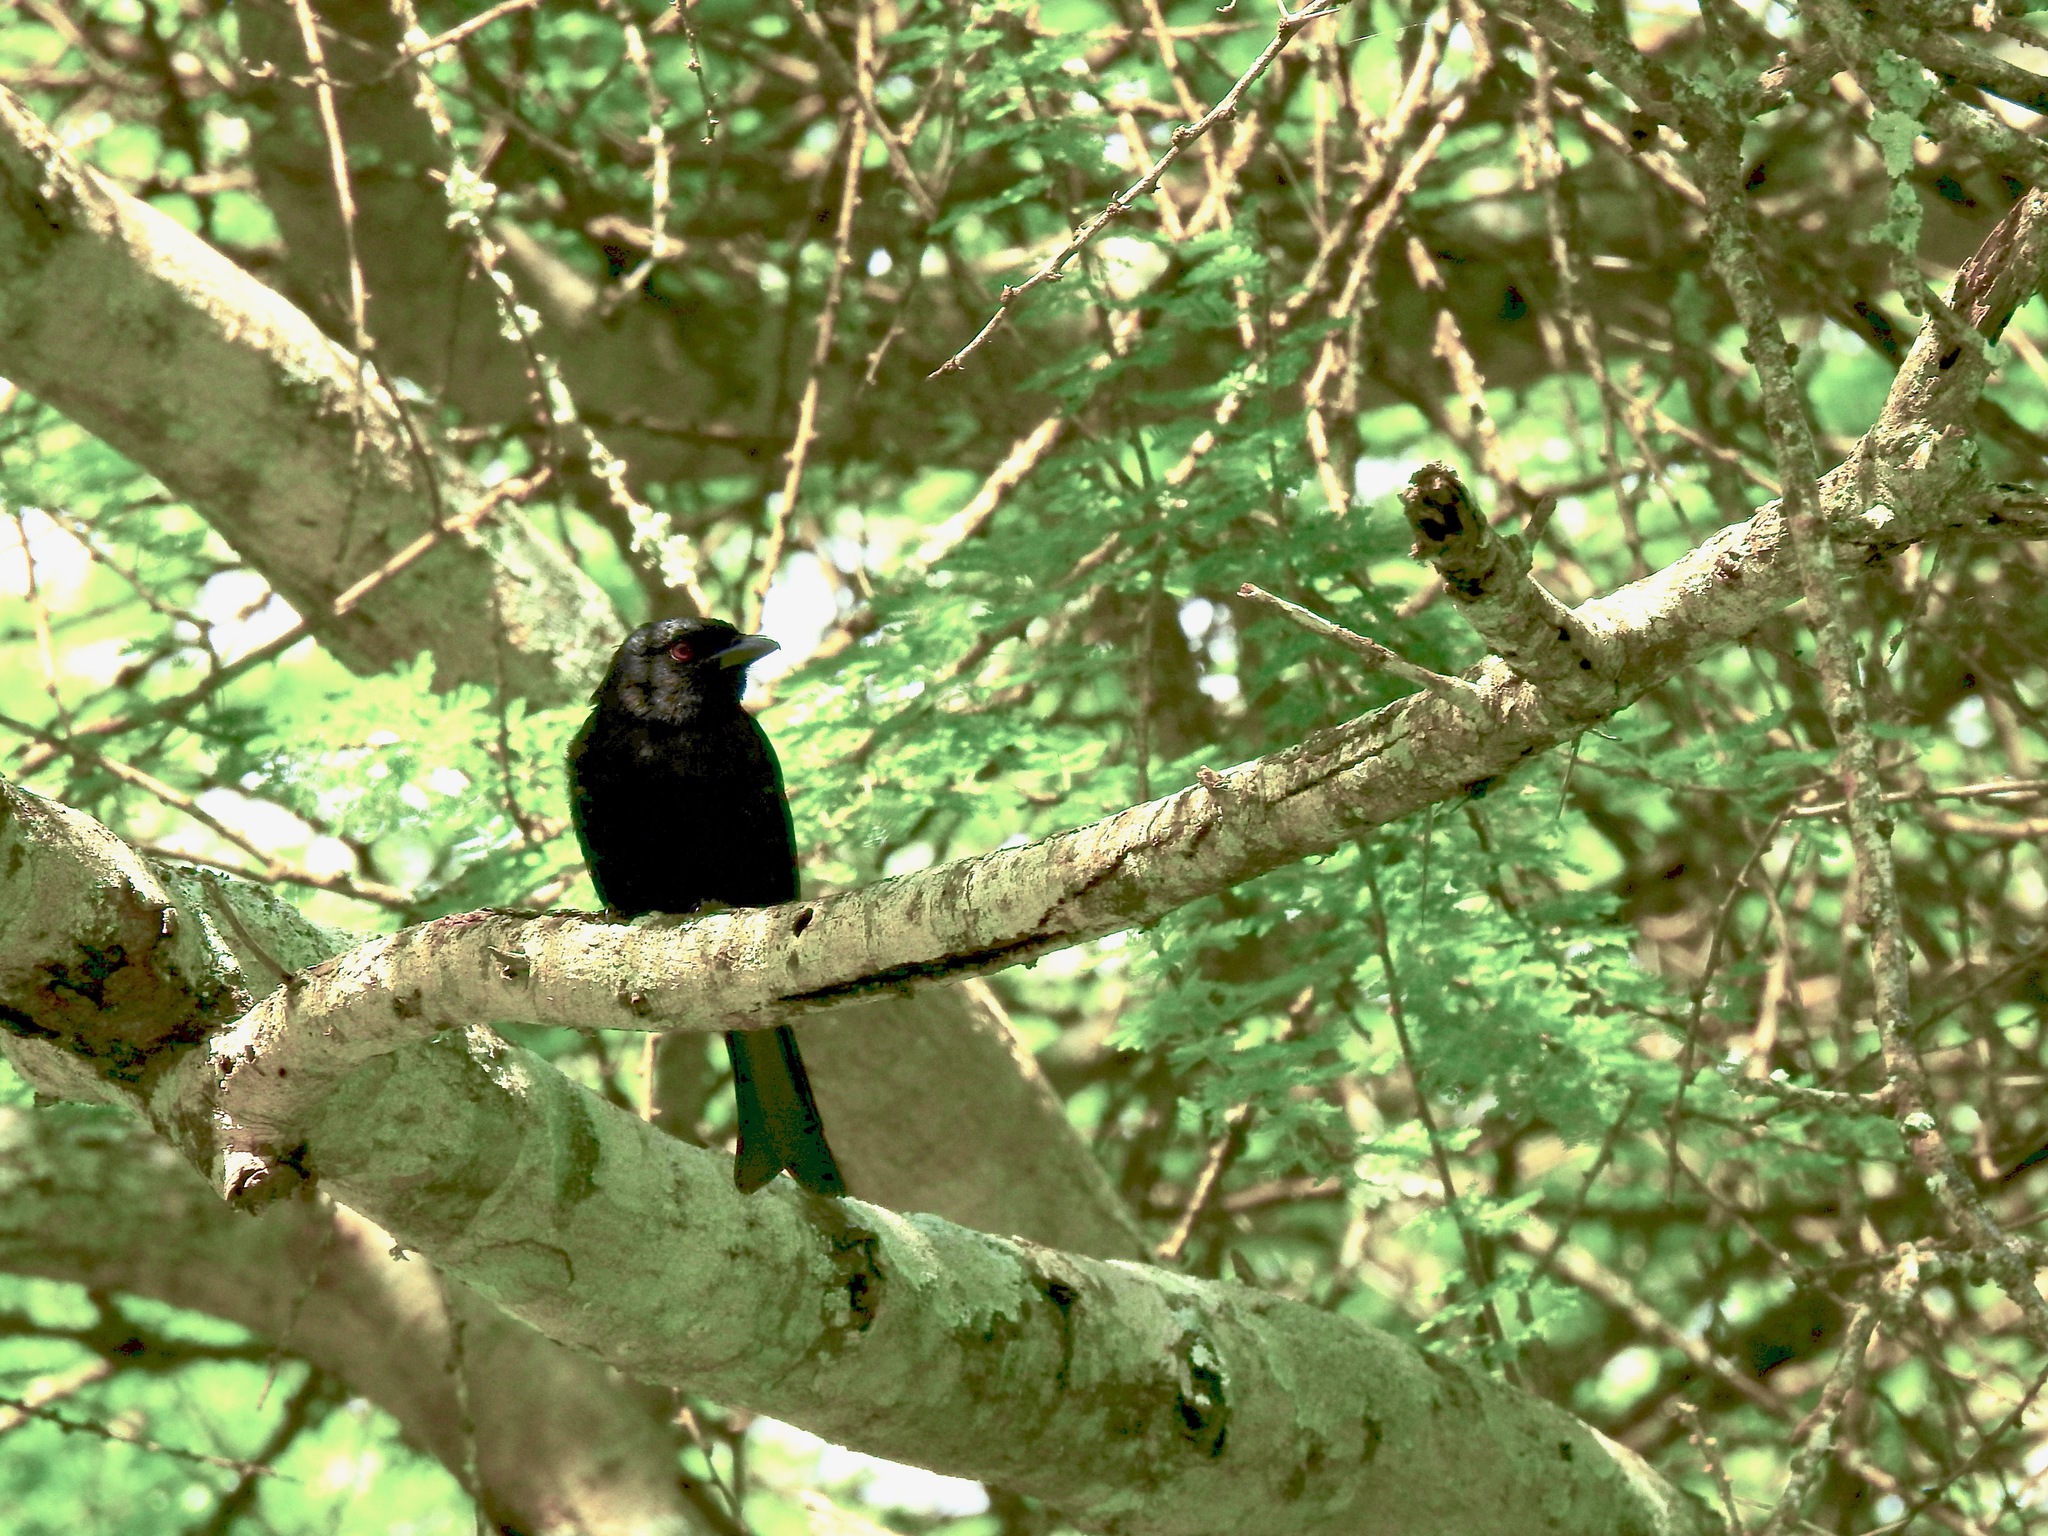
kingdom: Animalia
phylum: Chordata
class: Aves
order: Passeriformes
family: Dicruridae
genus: Dicrurus
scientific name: Dicrurus adsimilis
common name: Fork-tailed drongo
